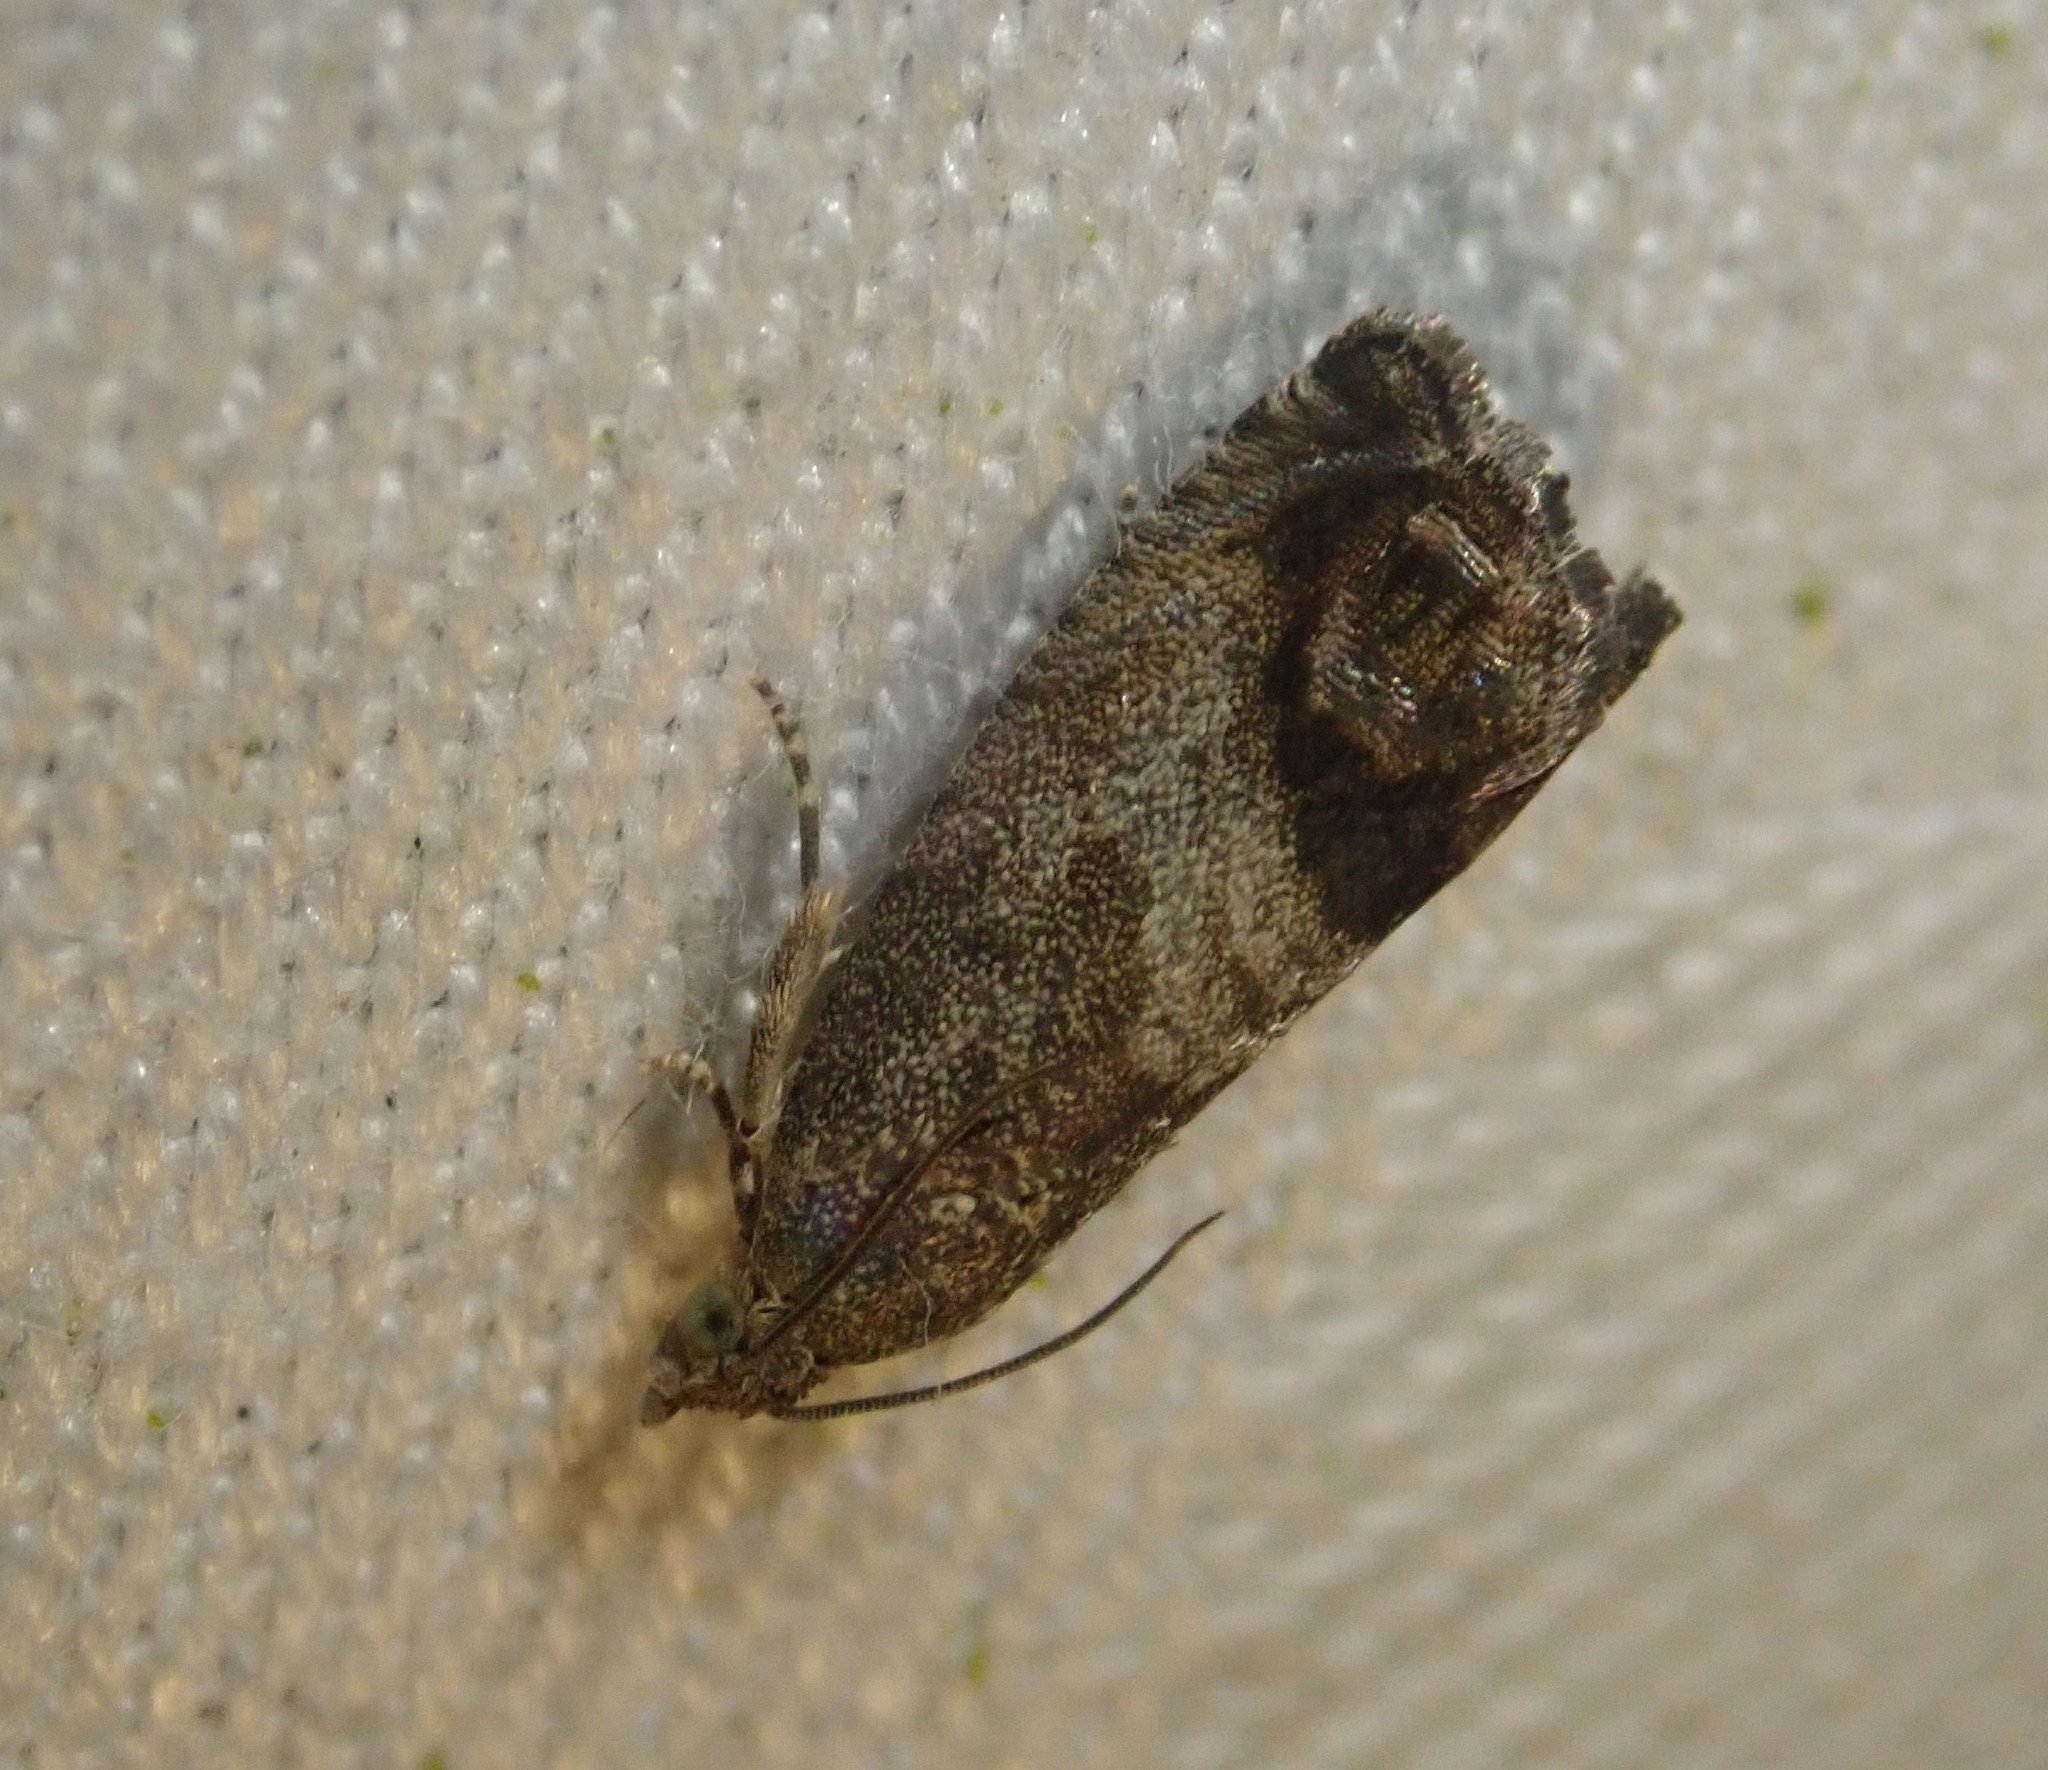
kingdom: Animalia
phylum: Arthropoda
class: Insecta
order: Lepidoptera
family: Tortricidae
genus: Cydia
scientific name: Cydia splendana
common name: De: kastanienwickler, eichenwickler es: oruga de la castaña fr: carpocapse des châtaignes it: cidia o tortrice tardiva delle castagne pt: bichado das castanhas gb: acorn moth, chestnut fruit tortrix
